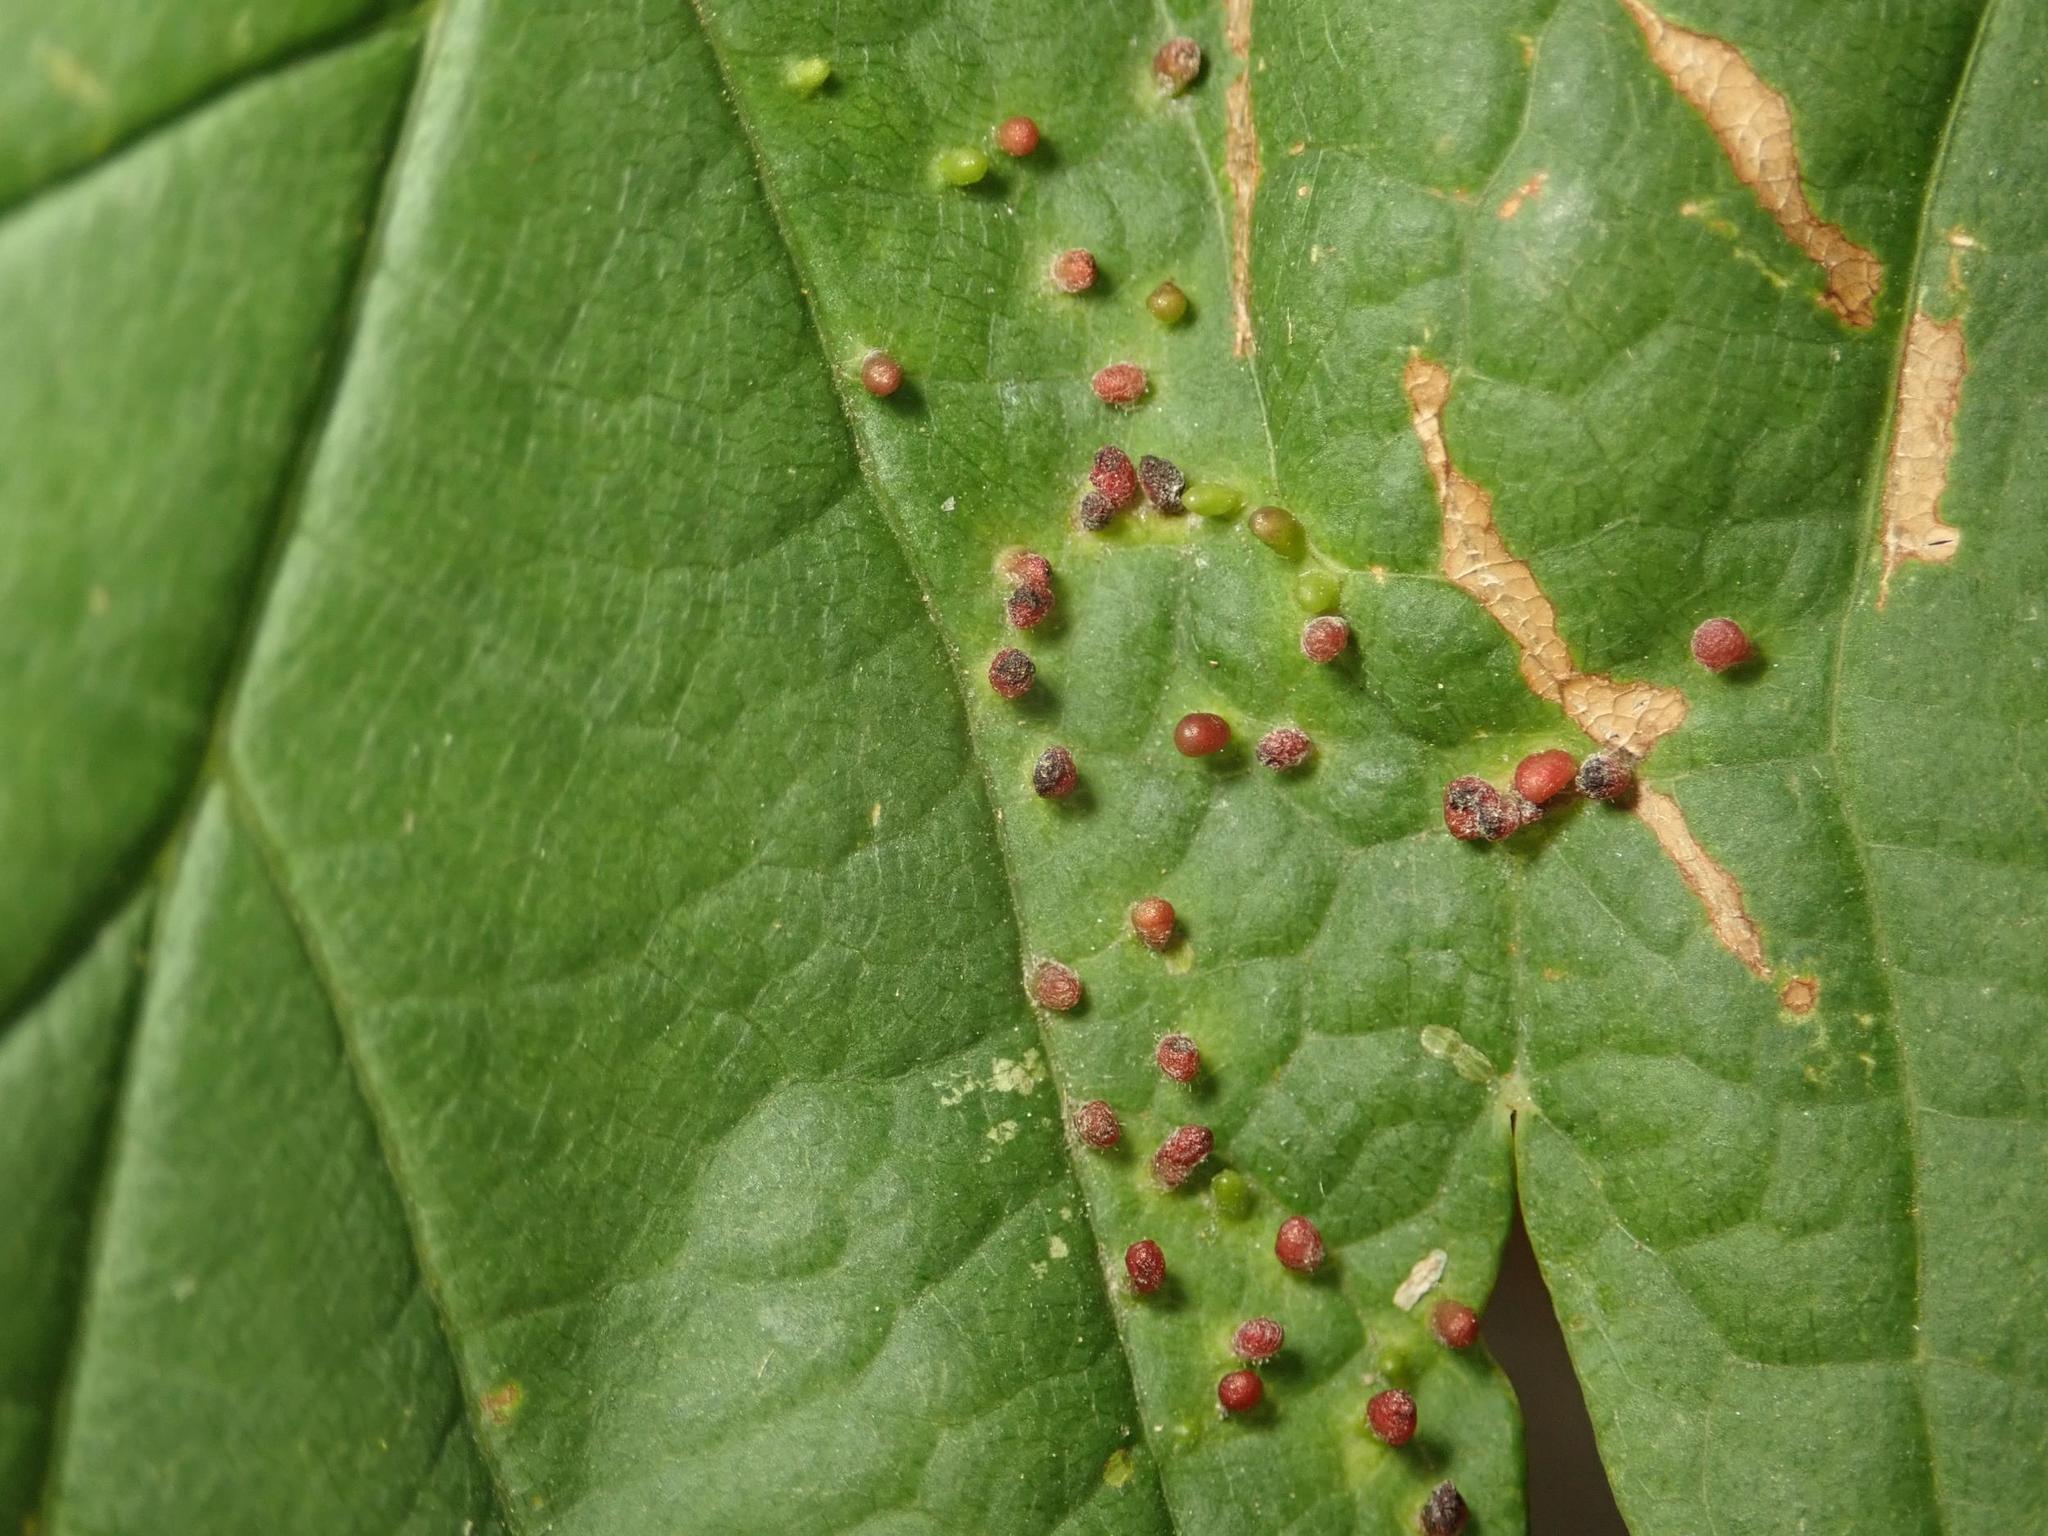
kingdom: Animalia
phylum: Arthropoda
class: Arachnida
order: Trombidiformes
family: Eriophyidae
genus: Aceria
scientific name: Aceria cephaloneus
